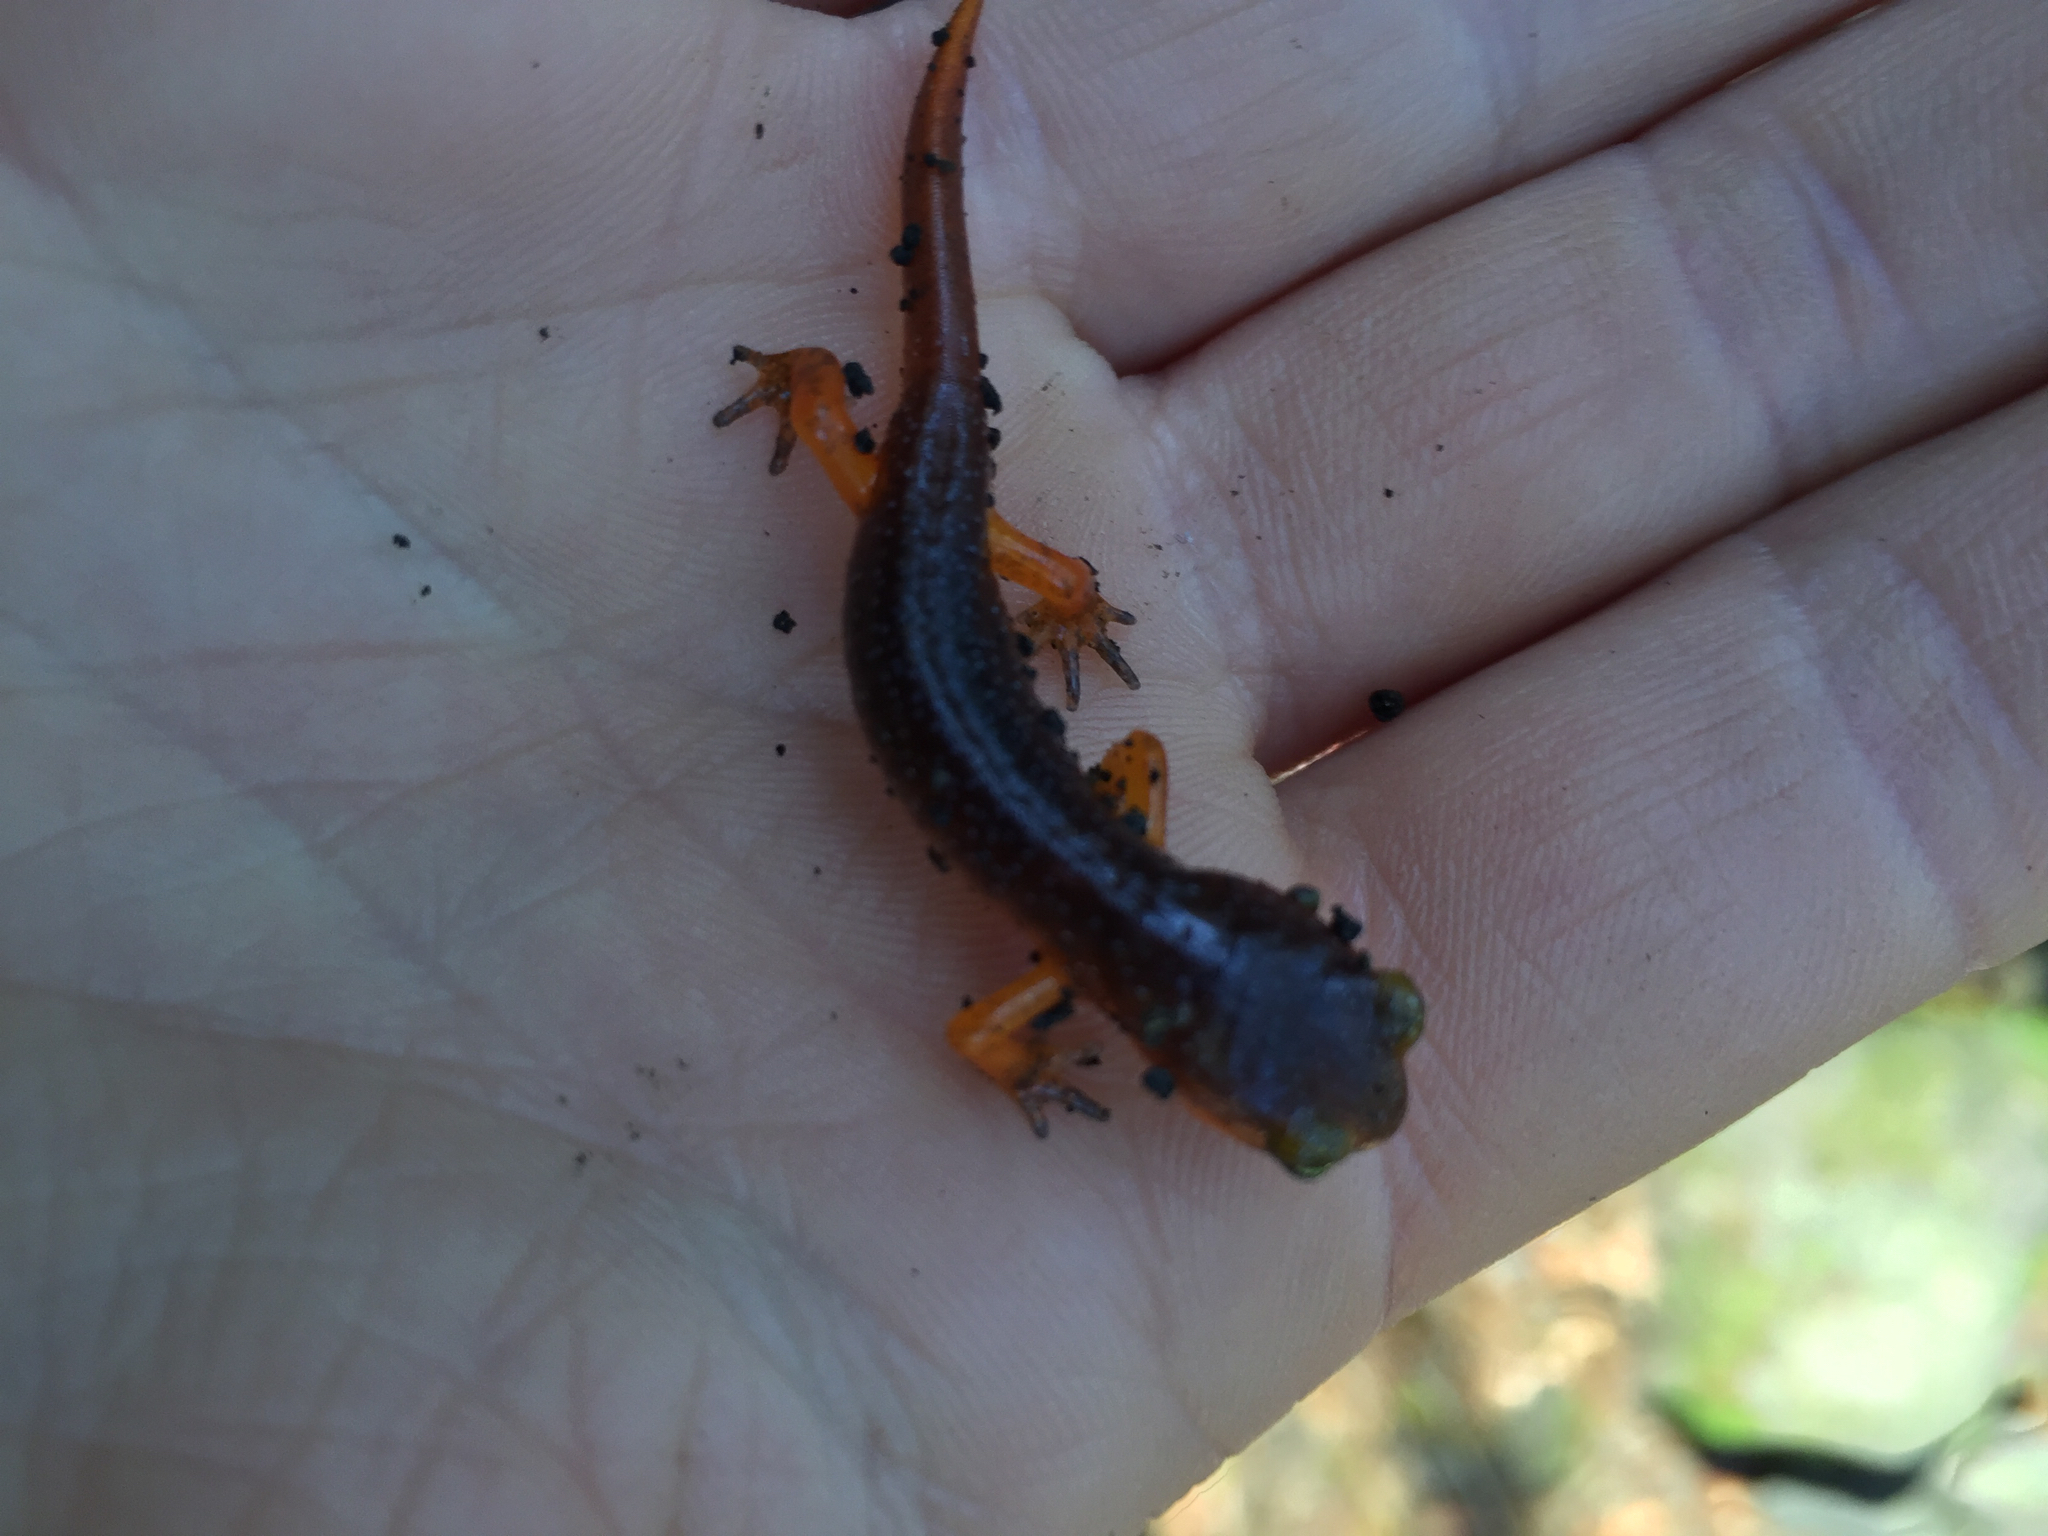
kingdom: Animalia
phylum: Chordata
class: Amphibia
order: Caudata
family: Plethodontidae
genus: Ensatina
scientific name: Ensatina eschscholtzii
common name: Ensatina
